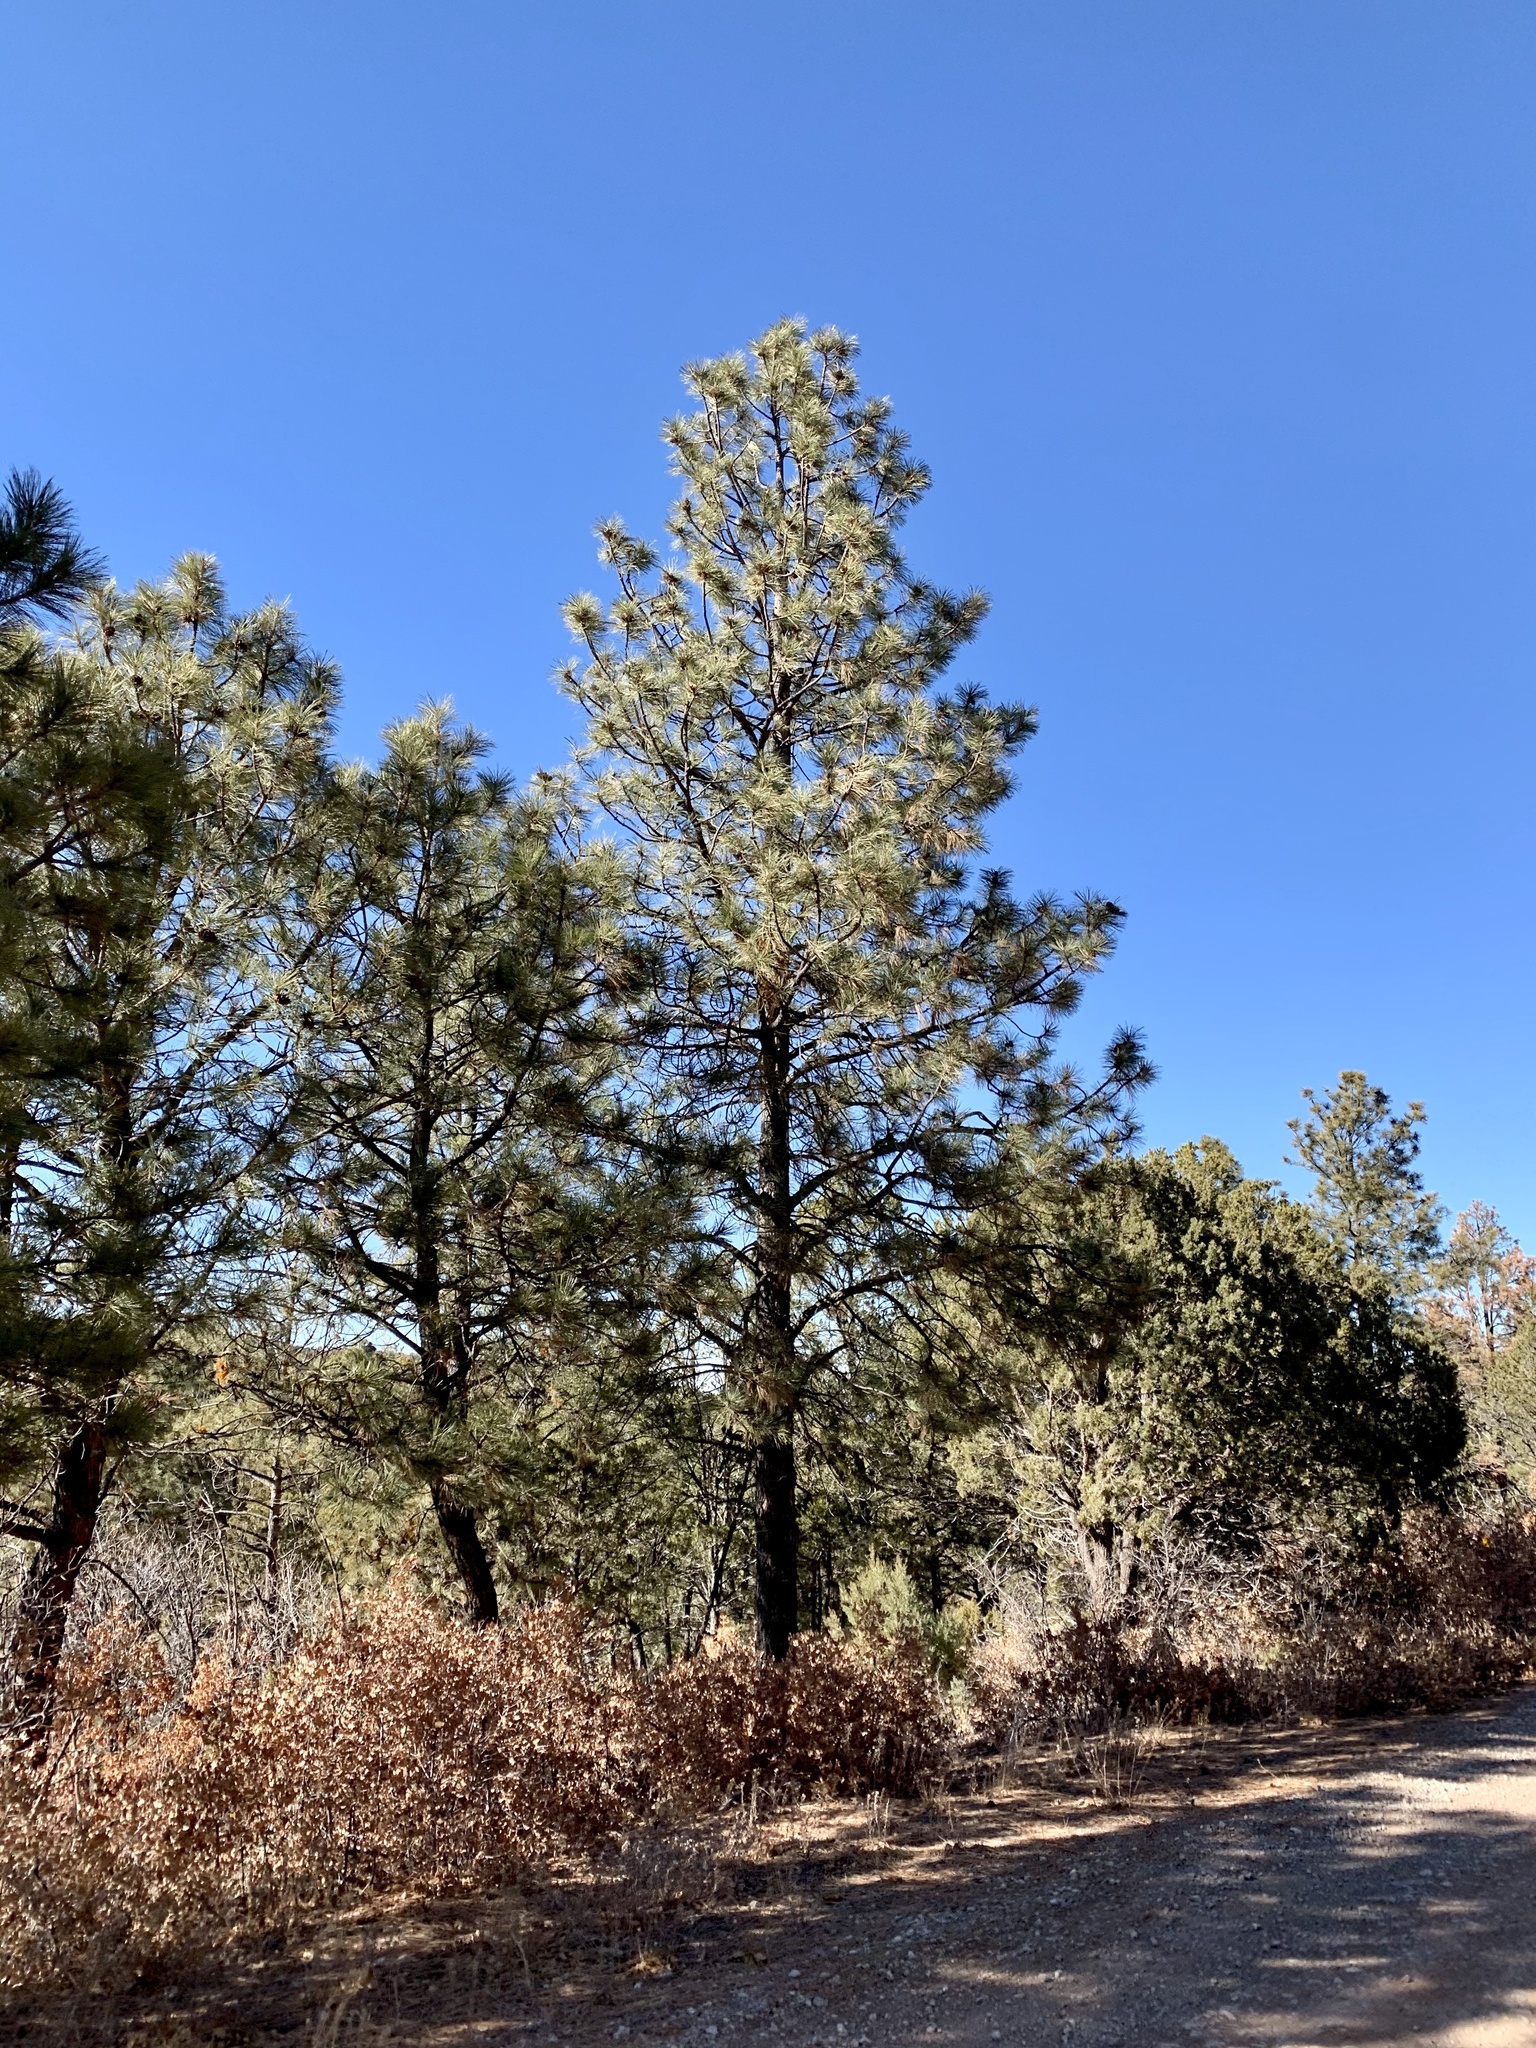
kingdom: Plantae
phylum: Tracheophyta
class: Pinopsida
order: Pinales
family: Pinaceae
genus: Pinus
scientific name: Pinus ponderosa
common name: Western yellow-pine
